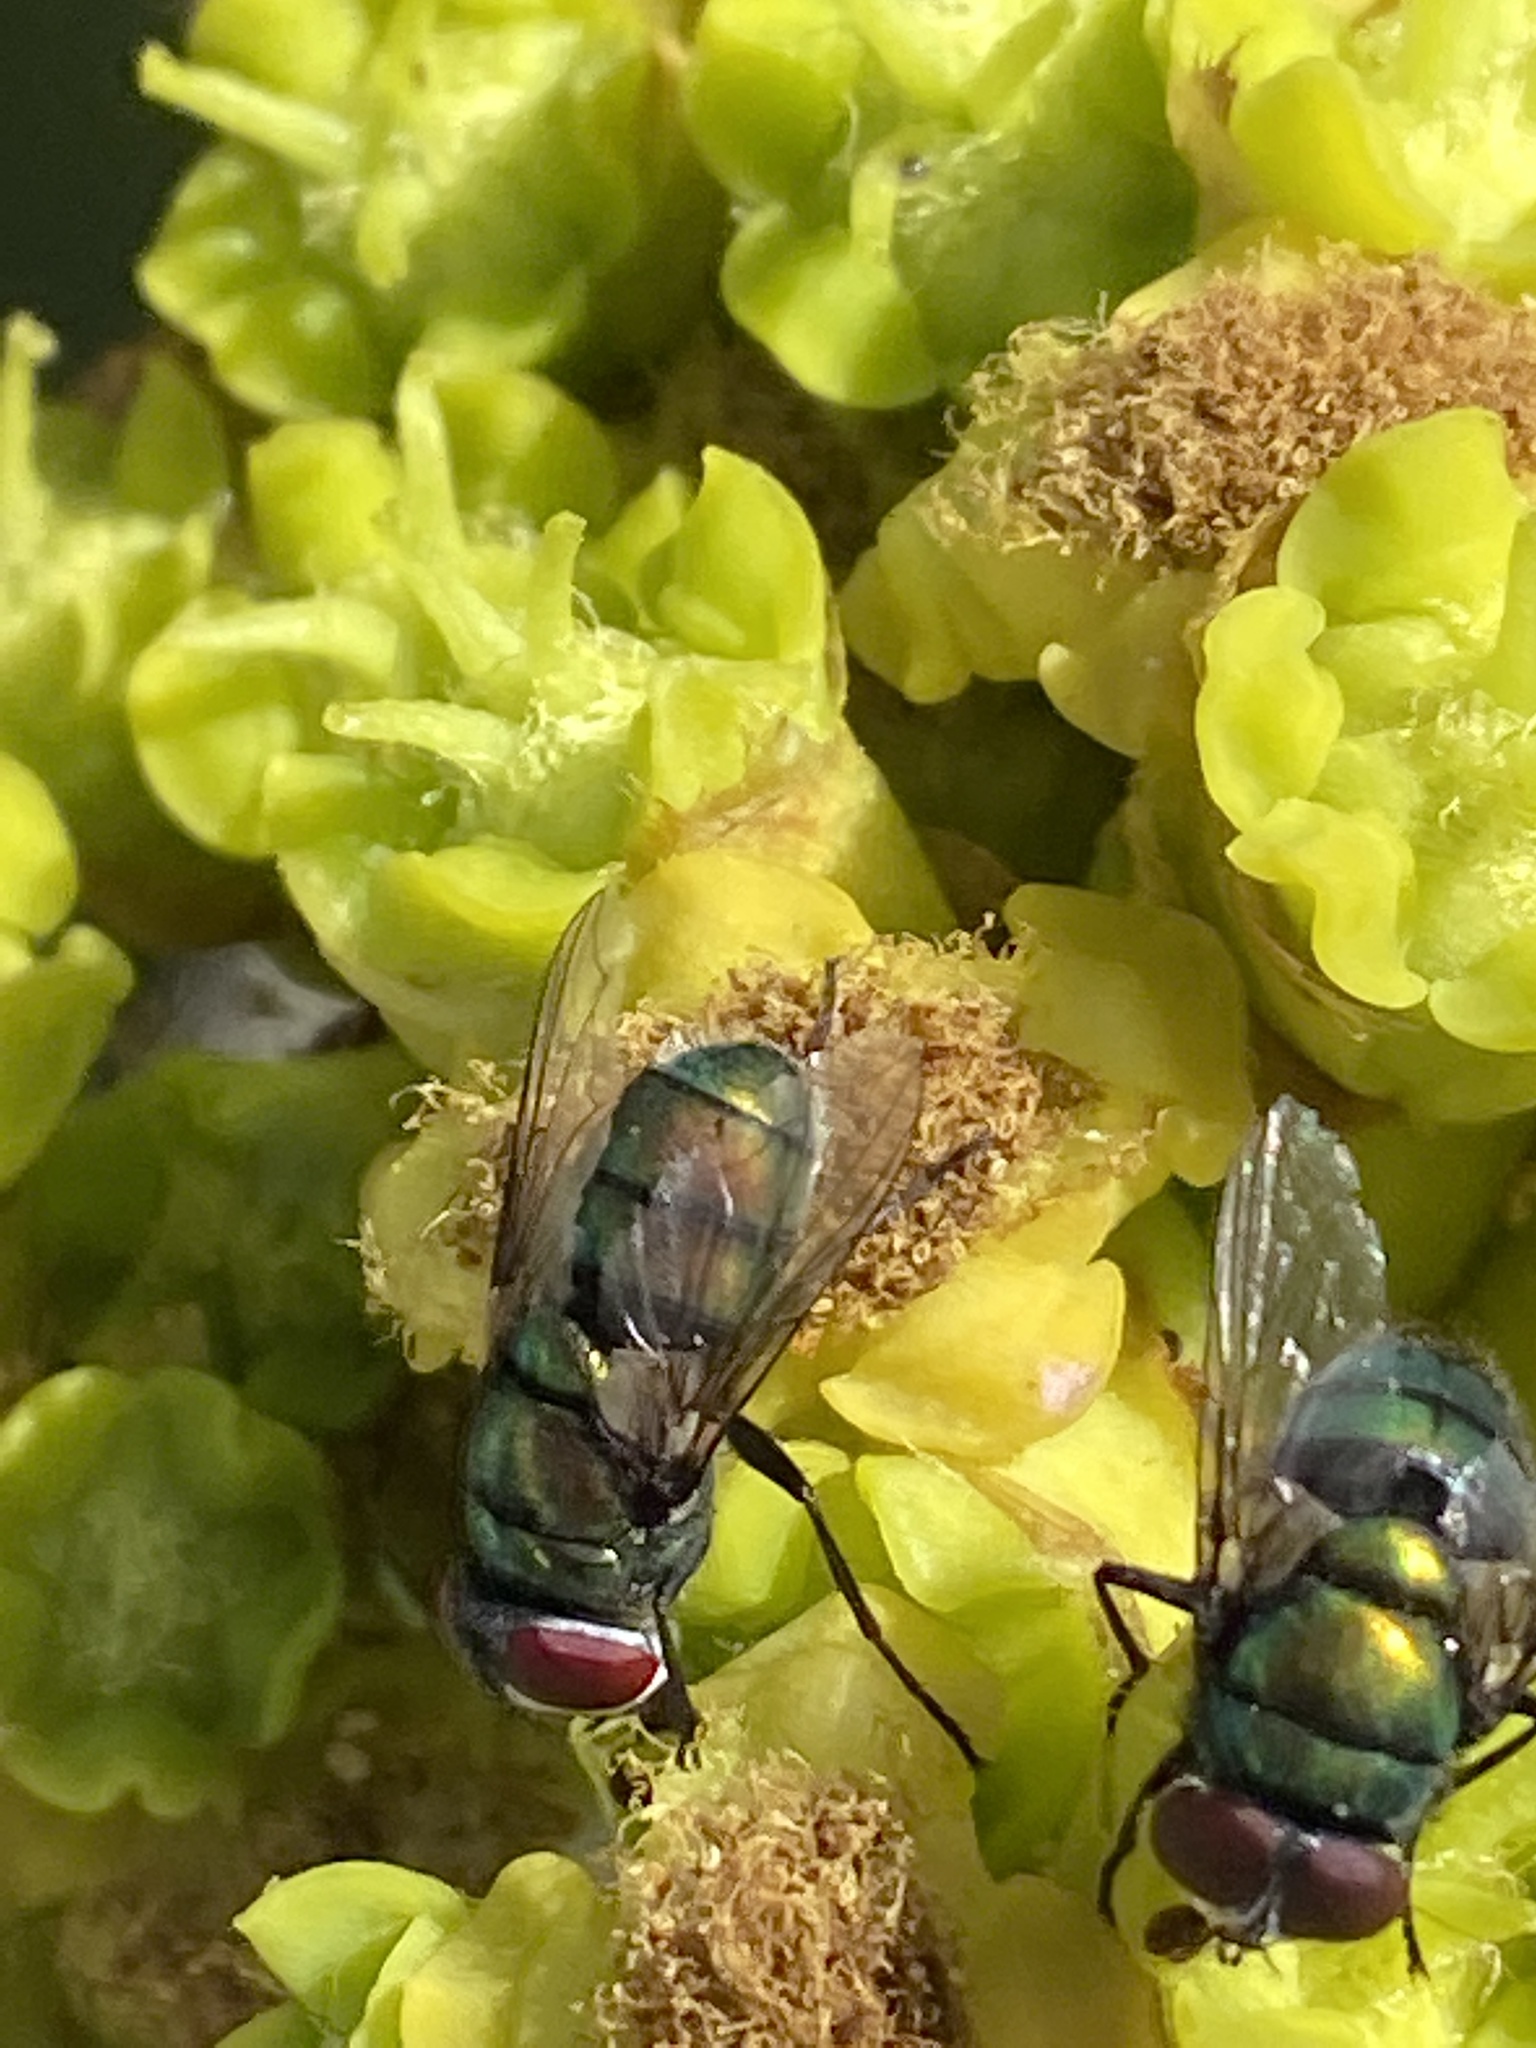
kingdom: Animalia
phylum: Arthropoda
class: Insecta
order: Diptera
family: Calliphoridae
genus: Chrysomya
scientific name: Chrysomya albiceps
